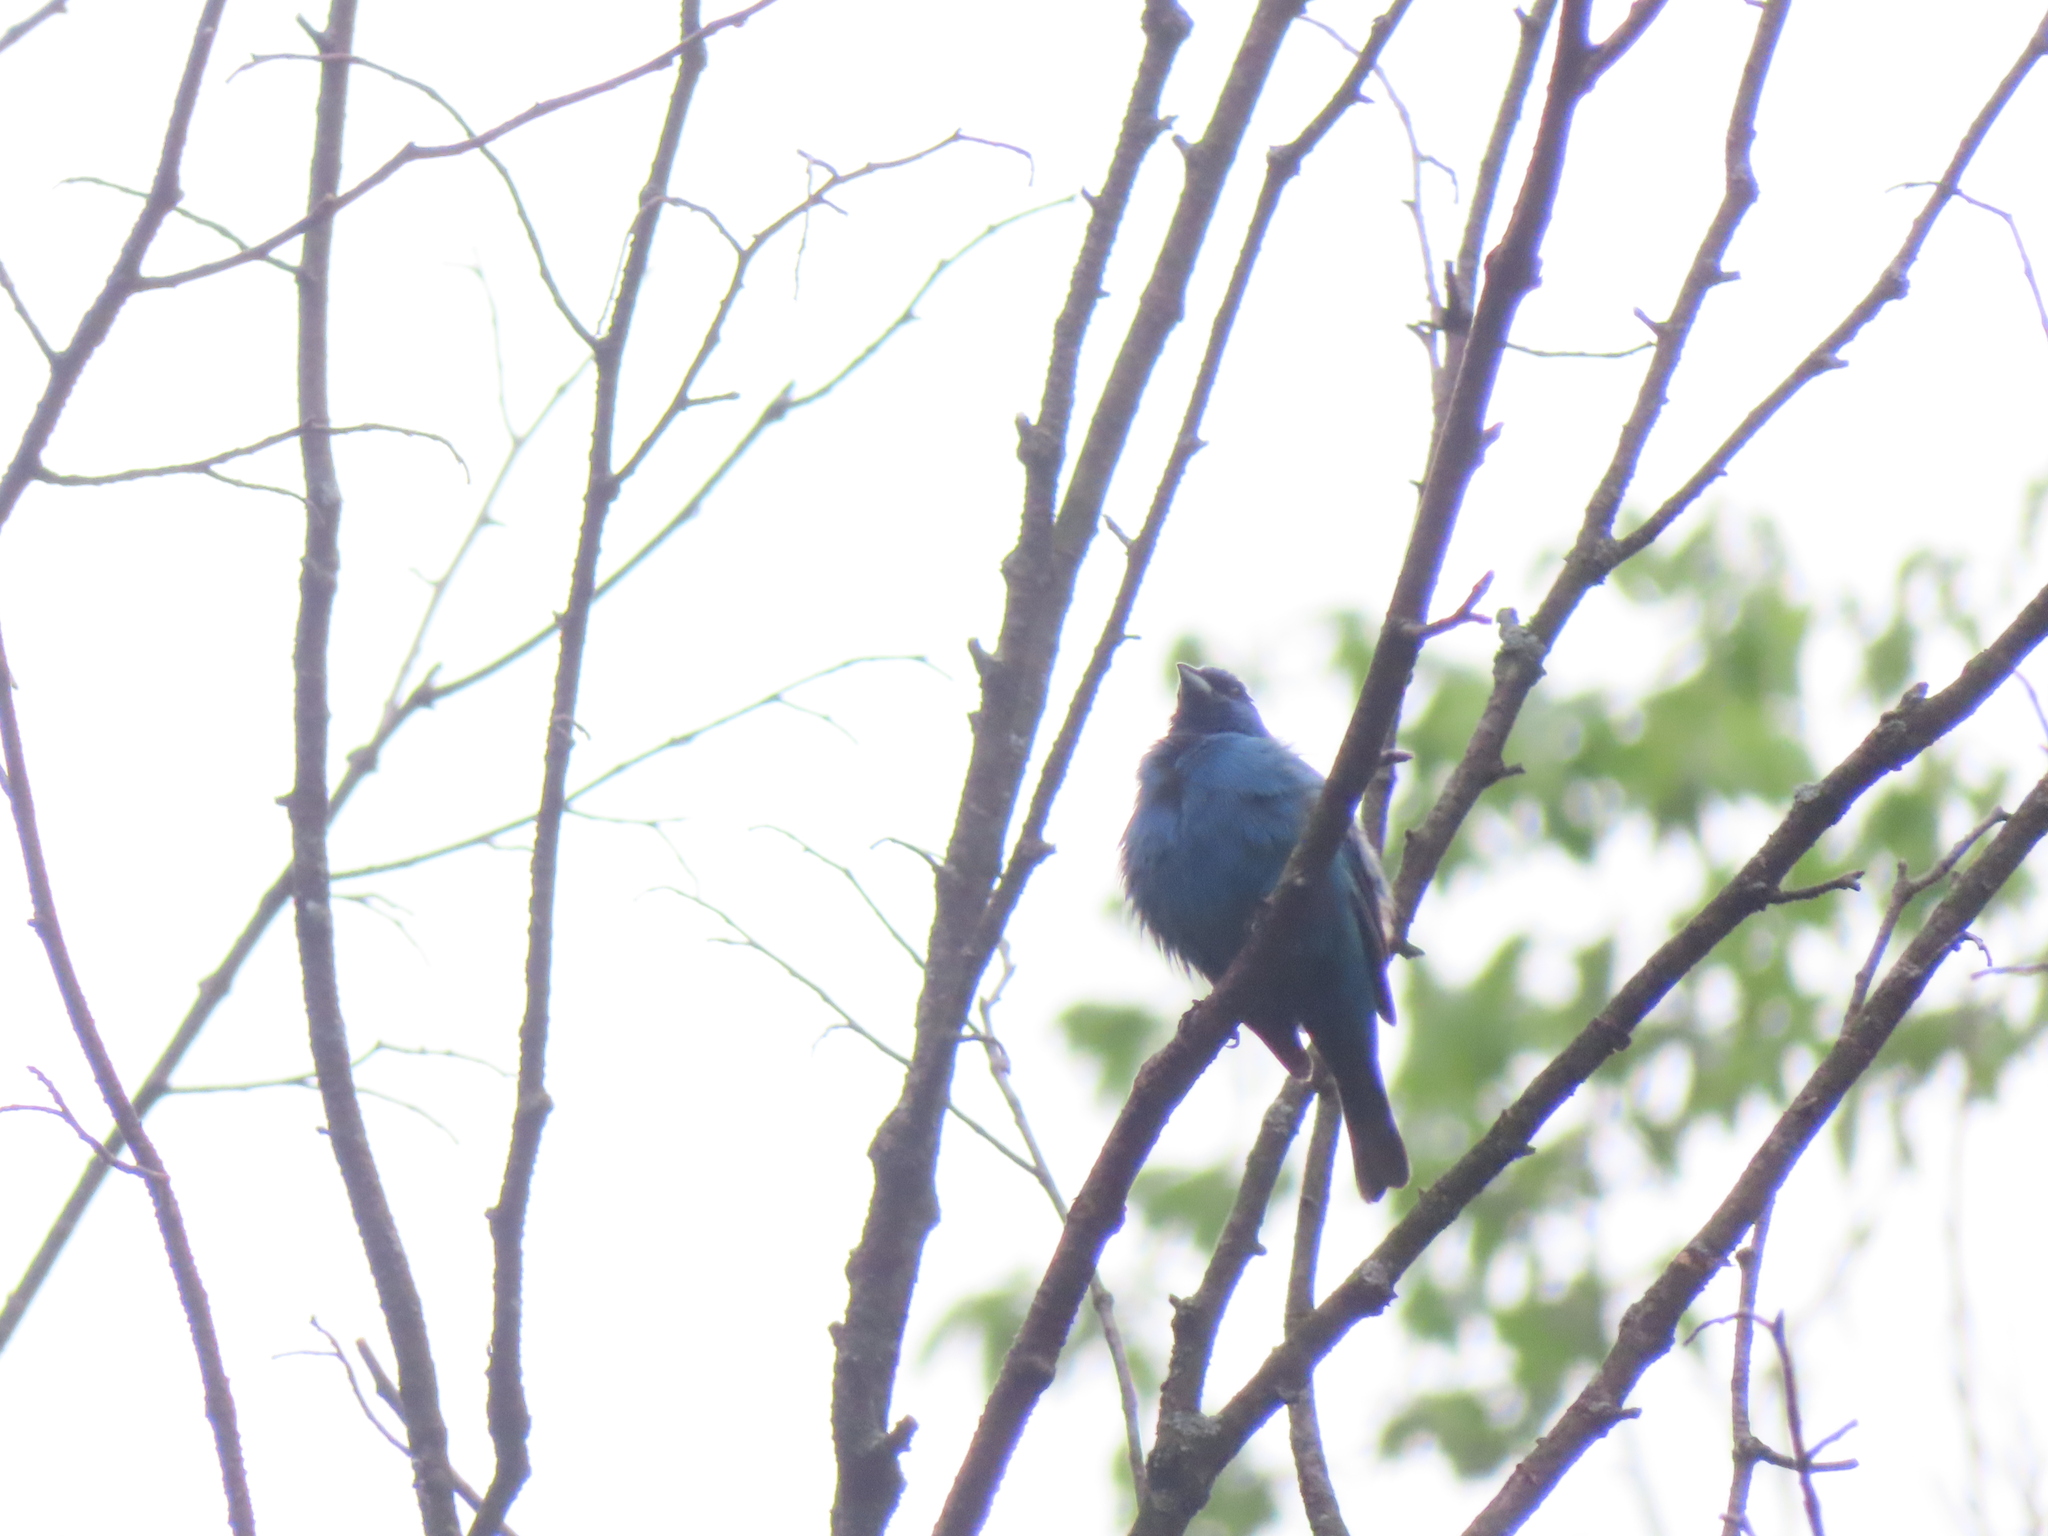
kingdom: Animalia
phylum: Chordata
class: Aves
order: Passeriformes
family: Cardinalidae
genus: Passerina
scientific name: Passerina cyanea
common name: Indigo bunting
